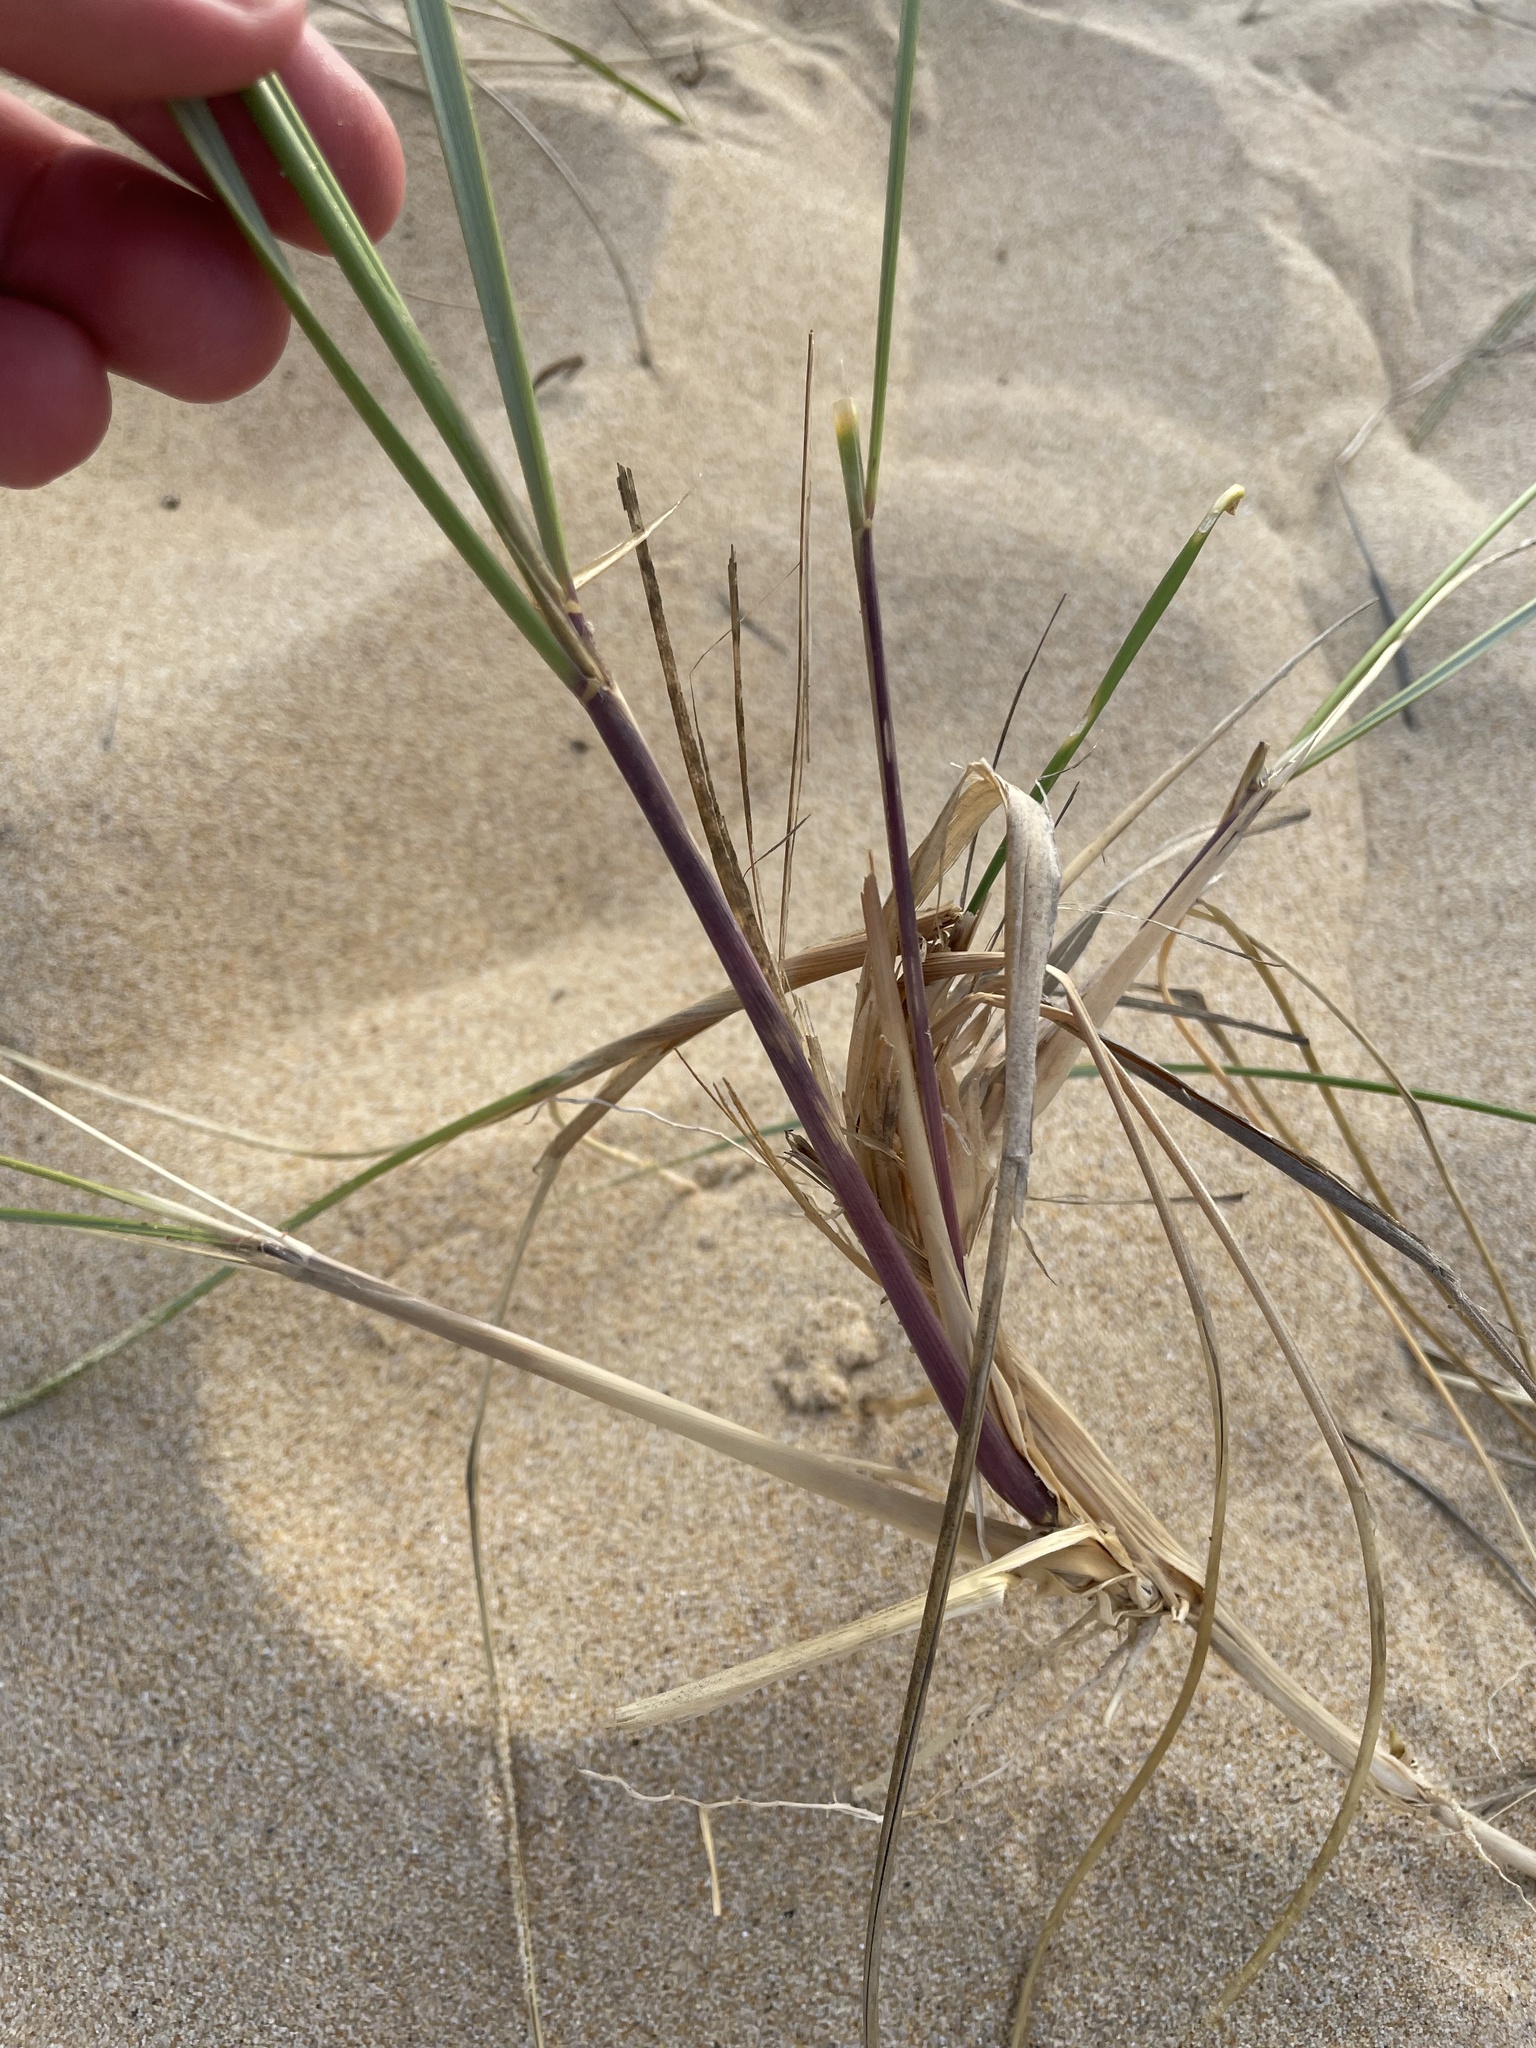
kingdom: Plantae
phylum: Tracheophyta
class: Liliopsida
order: Poales
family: Poaceae
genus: Calamagrostis
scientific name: Calamagrostis arenaria
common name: European beachgrass
